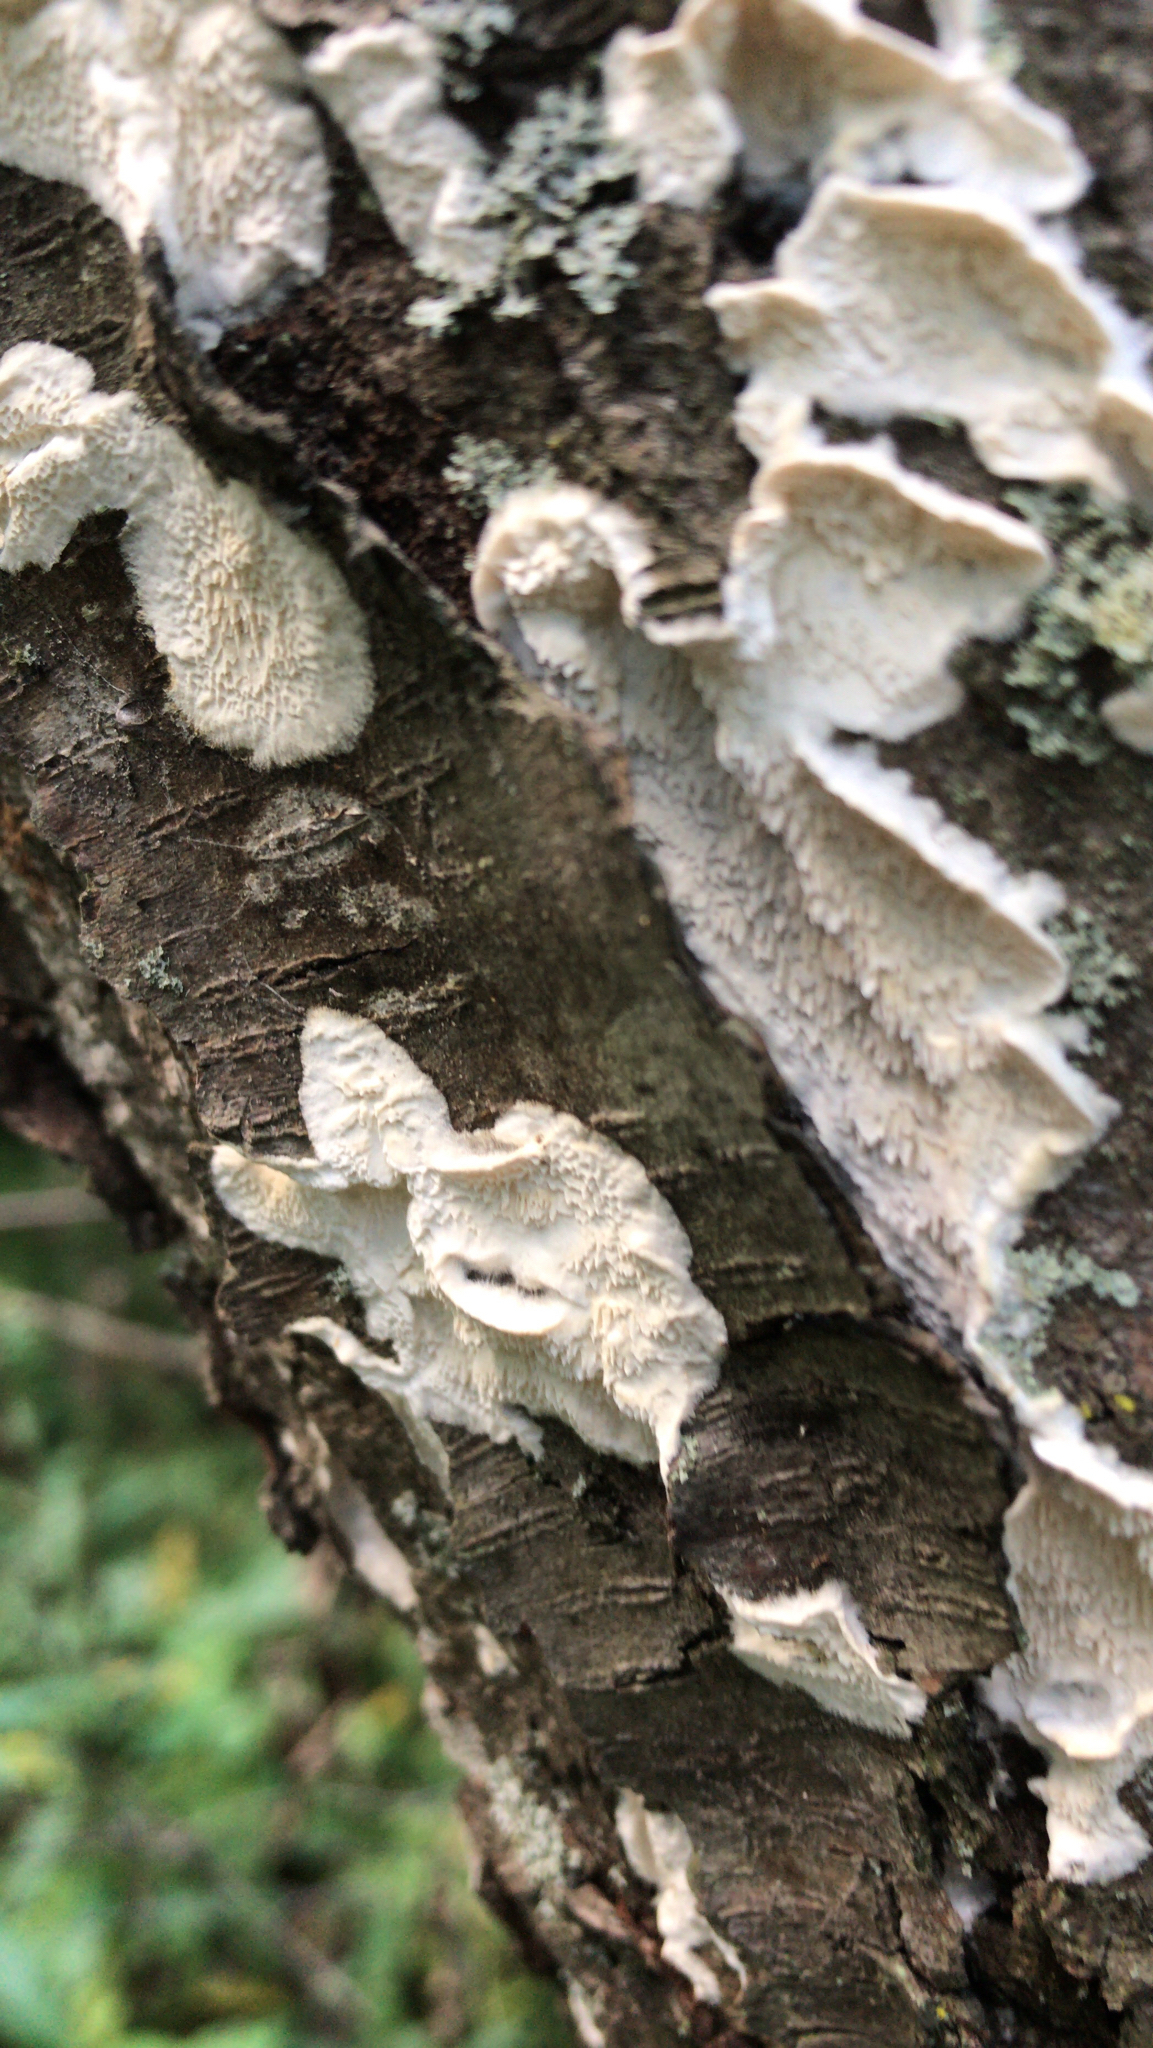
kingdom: Fungi
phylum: Basidiomycota
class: Agaricomycetes
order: Polyporales
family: Irpicaceae
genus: Irpex
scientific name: Irpex lacteus
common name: Milk-white toothed polypore
